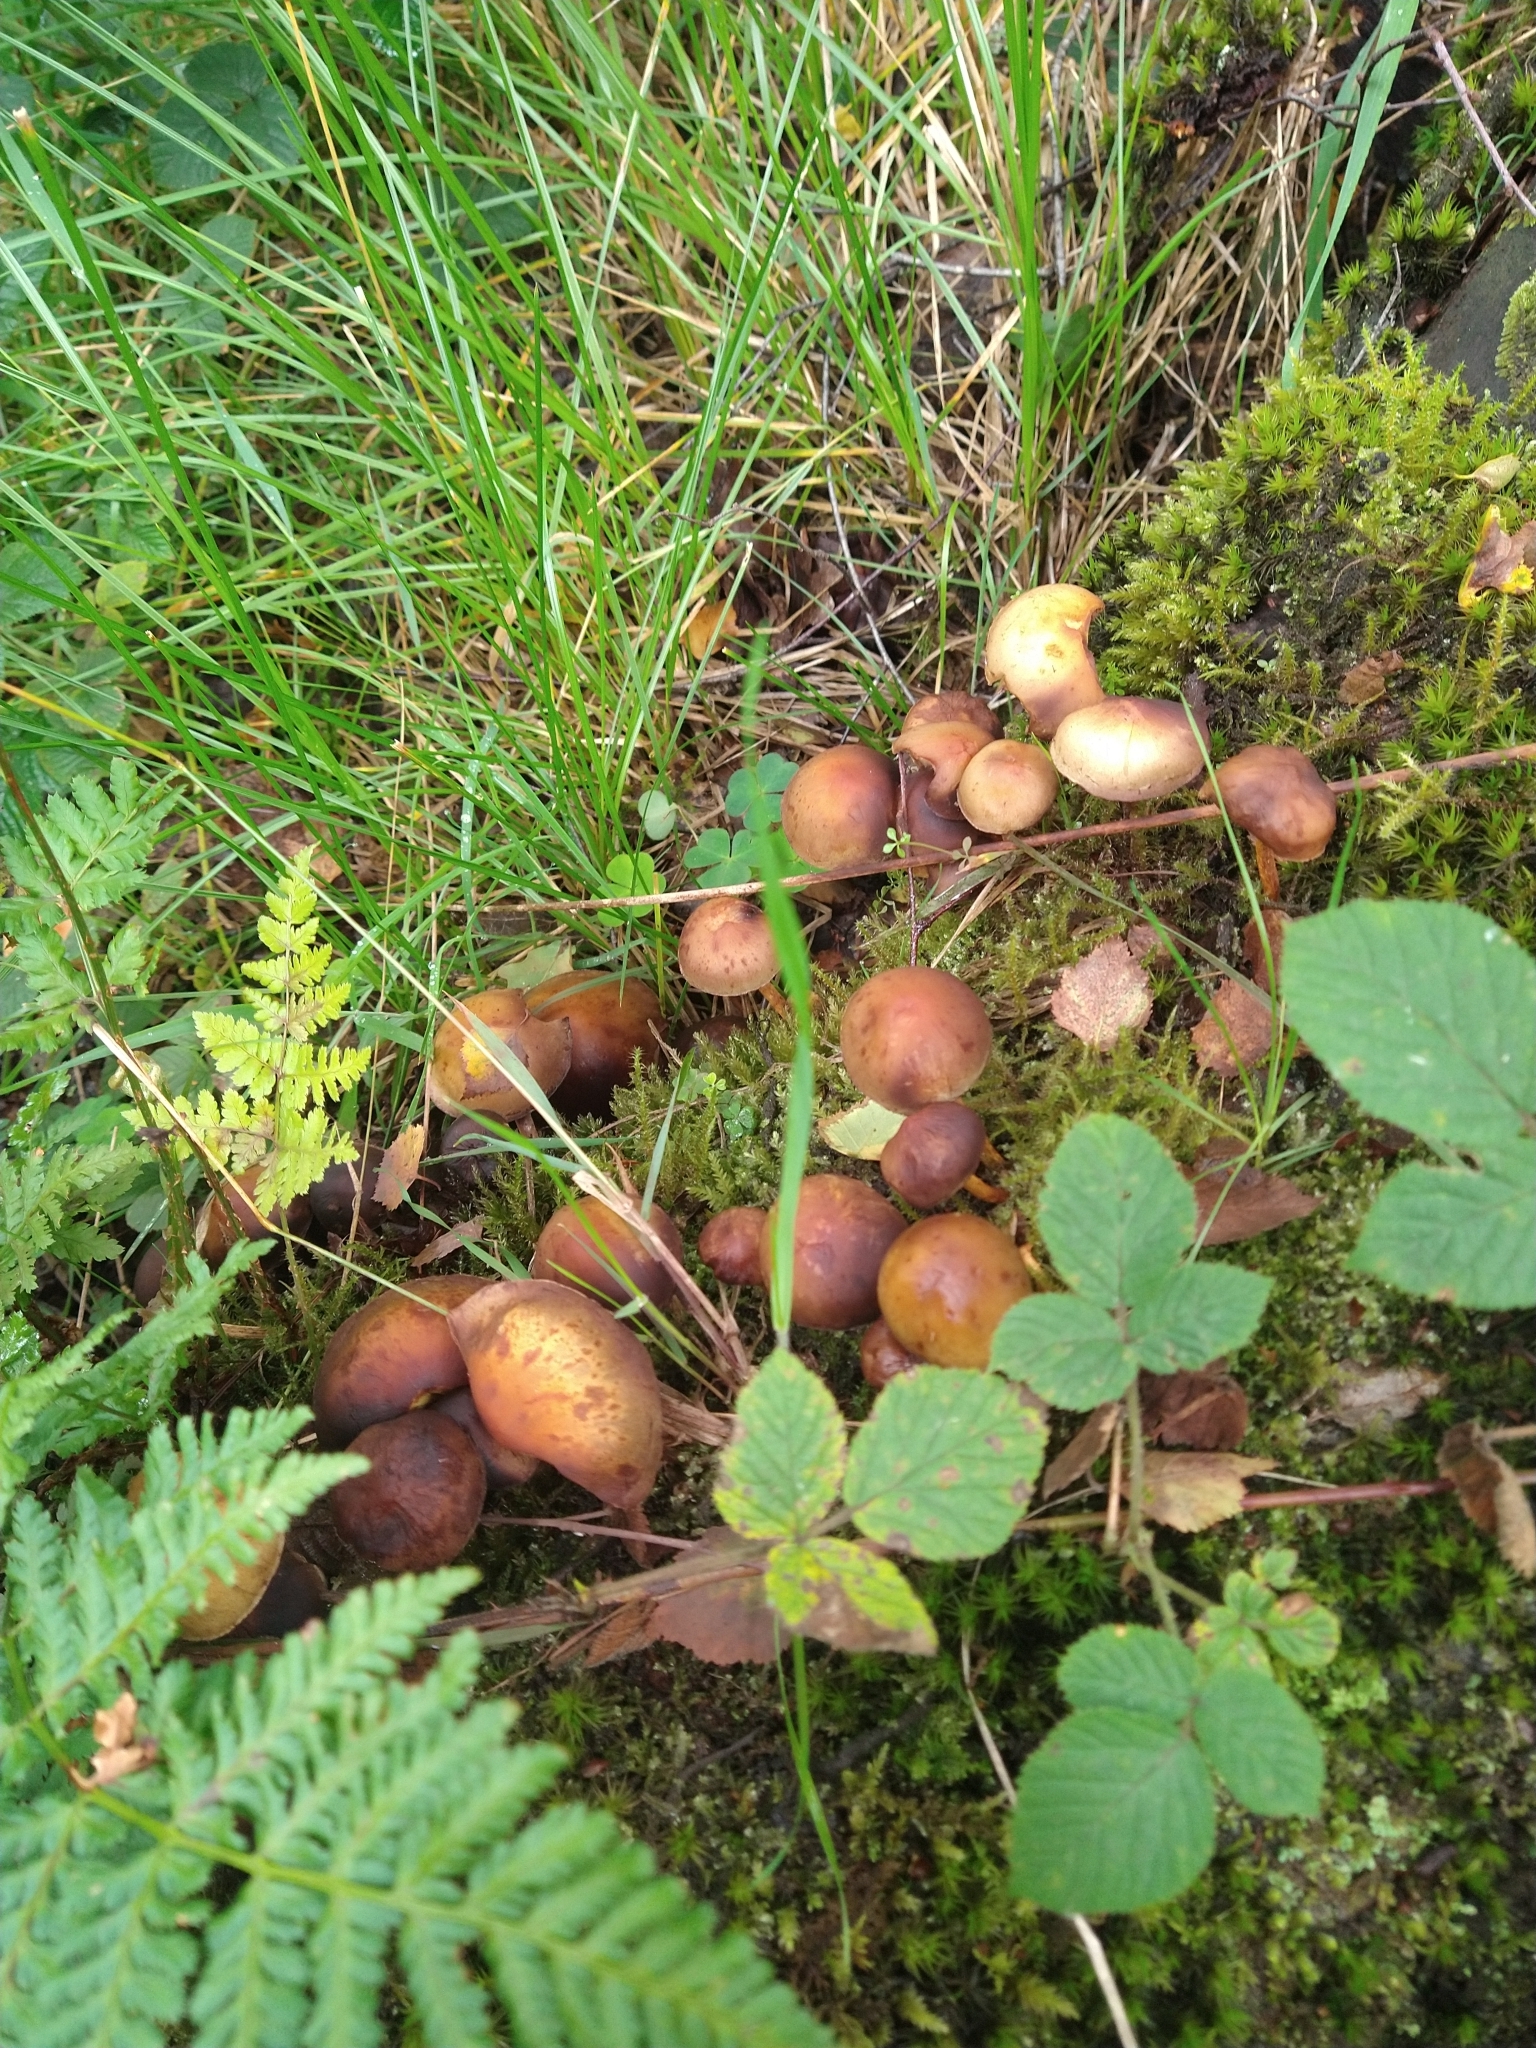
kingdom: Fungi
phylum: Basidiomycota
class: Agaricomycetes
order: Agaricales
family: Strophariaceae
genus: Hypholoma
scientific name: Hypholoma fasciculare
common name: Sulphur tuft
